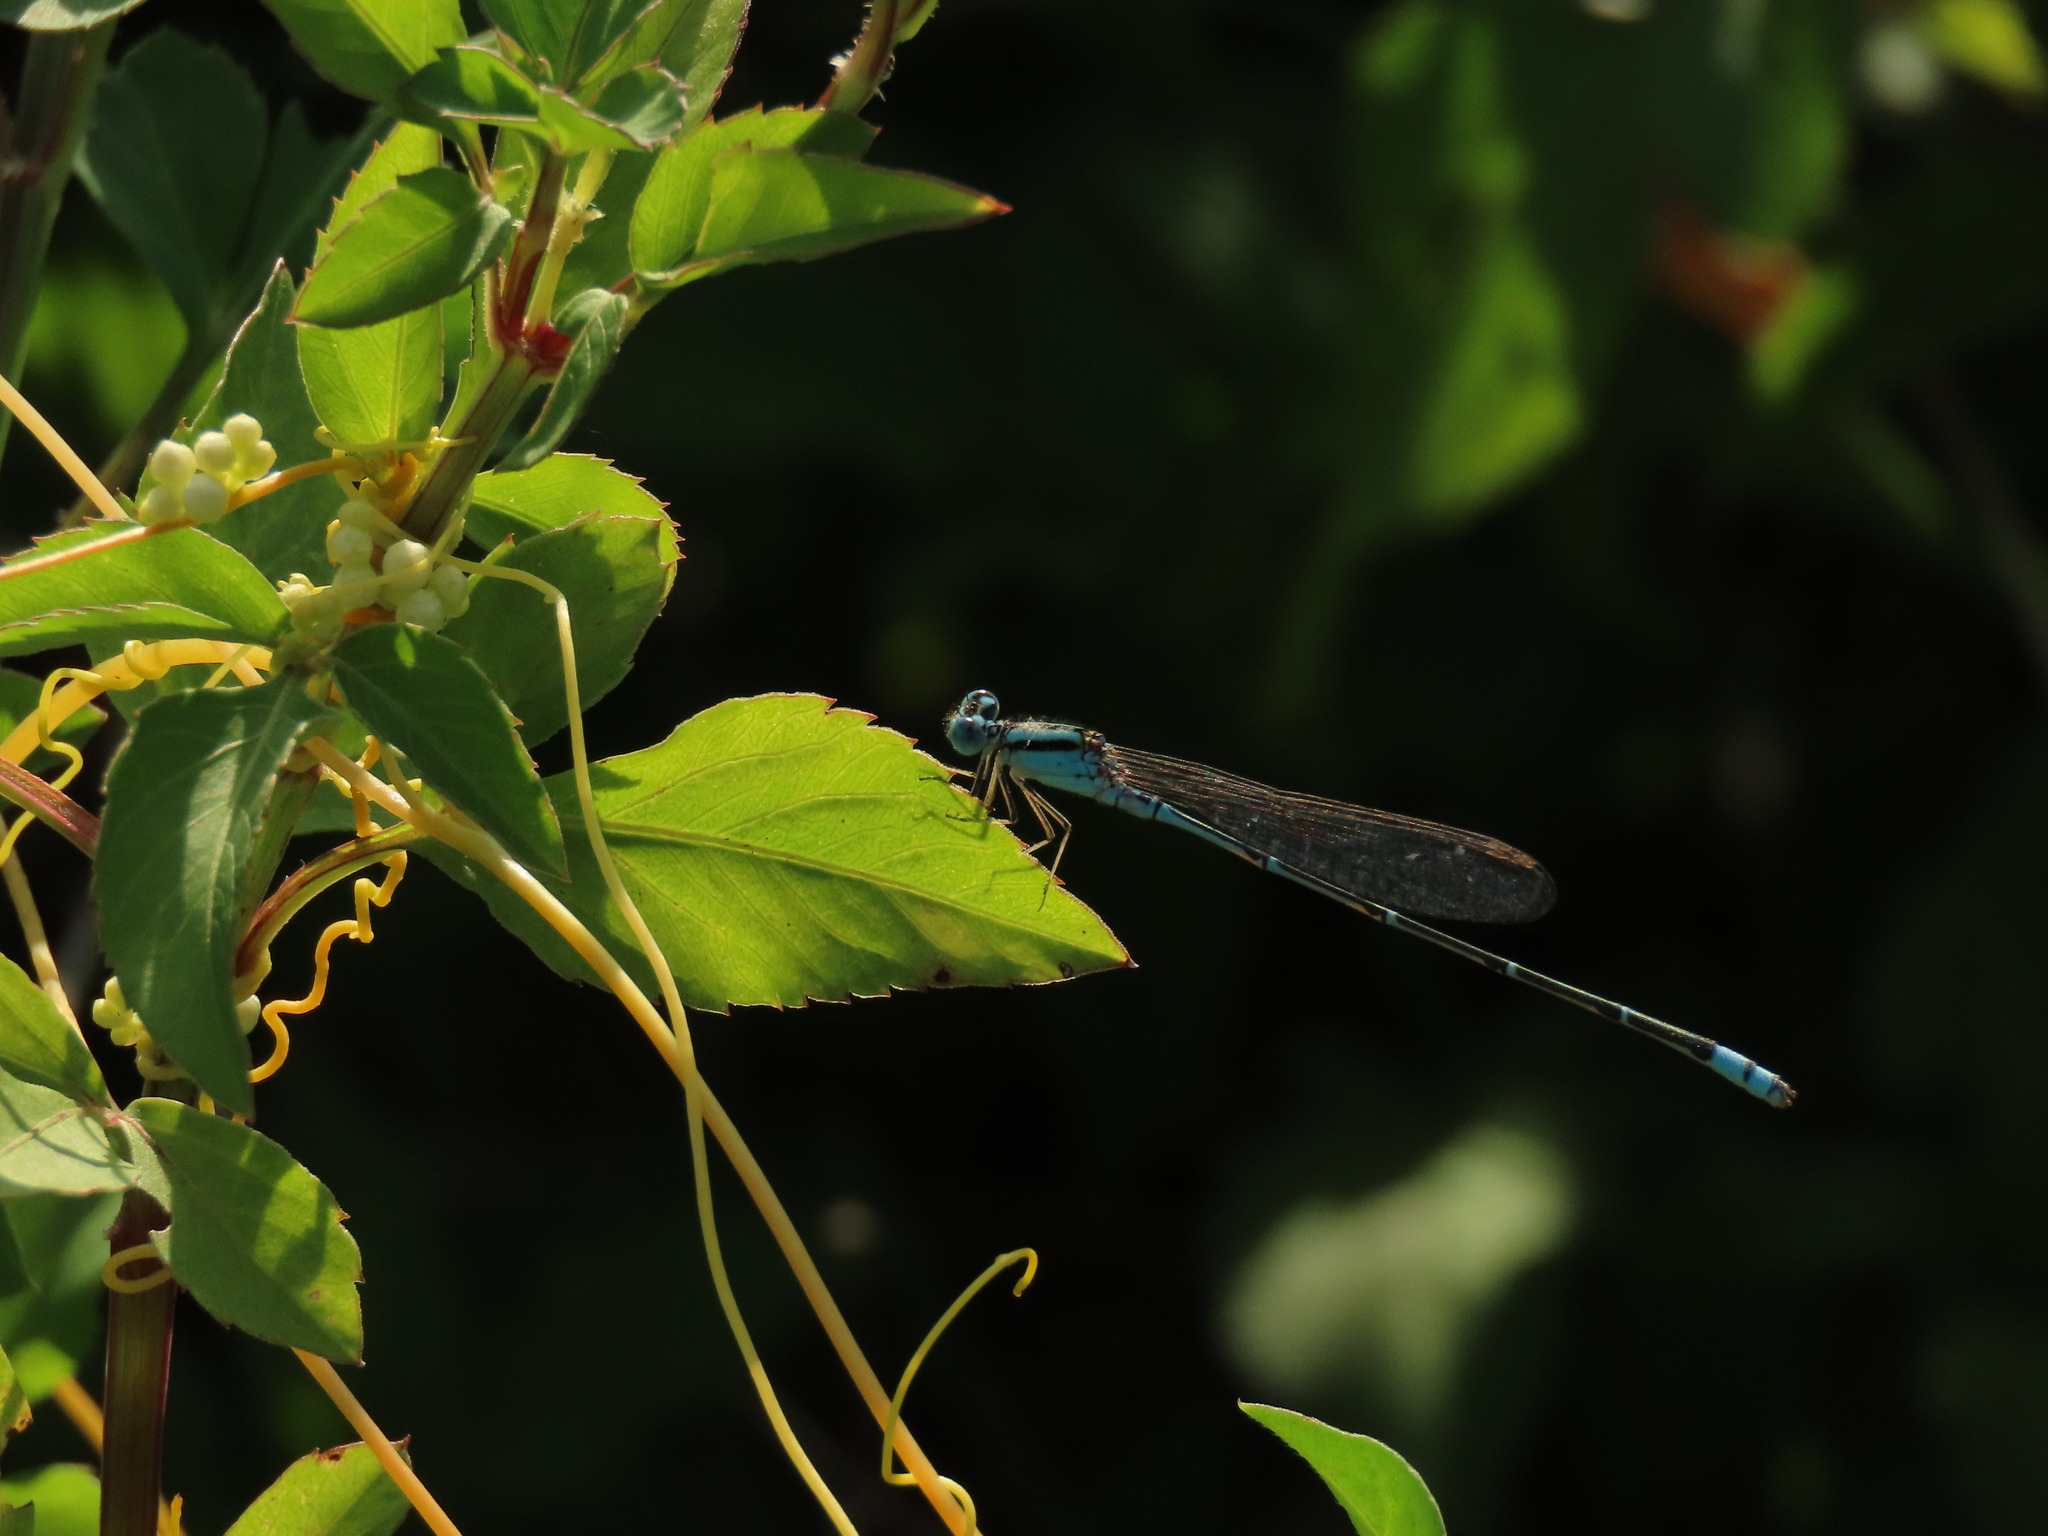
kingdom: Animalia
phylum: Arthropoda
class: Insecta
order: Odonata
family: Coenagrionidae
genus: Pseudagrion
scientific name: Pseudagrion microcephalum
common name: Blue riverdamsel
